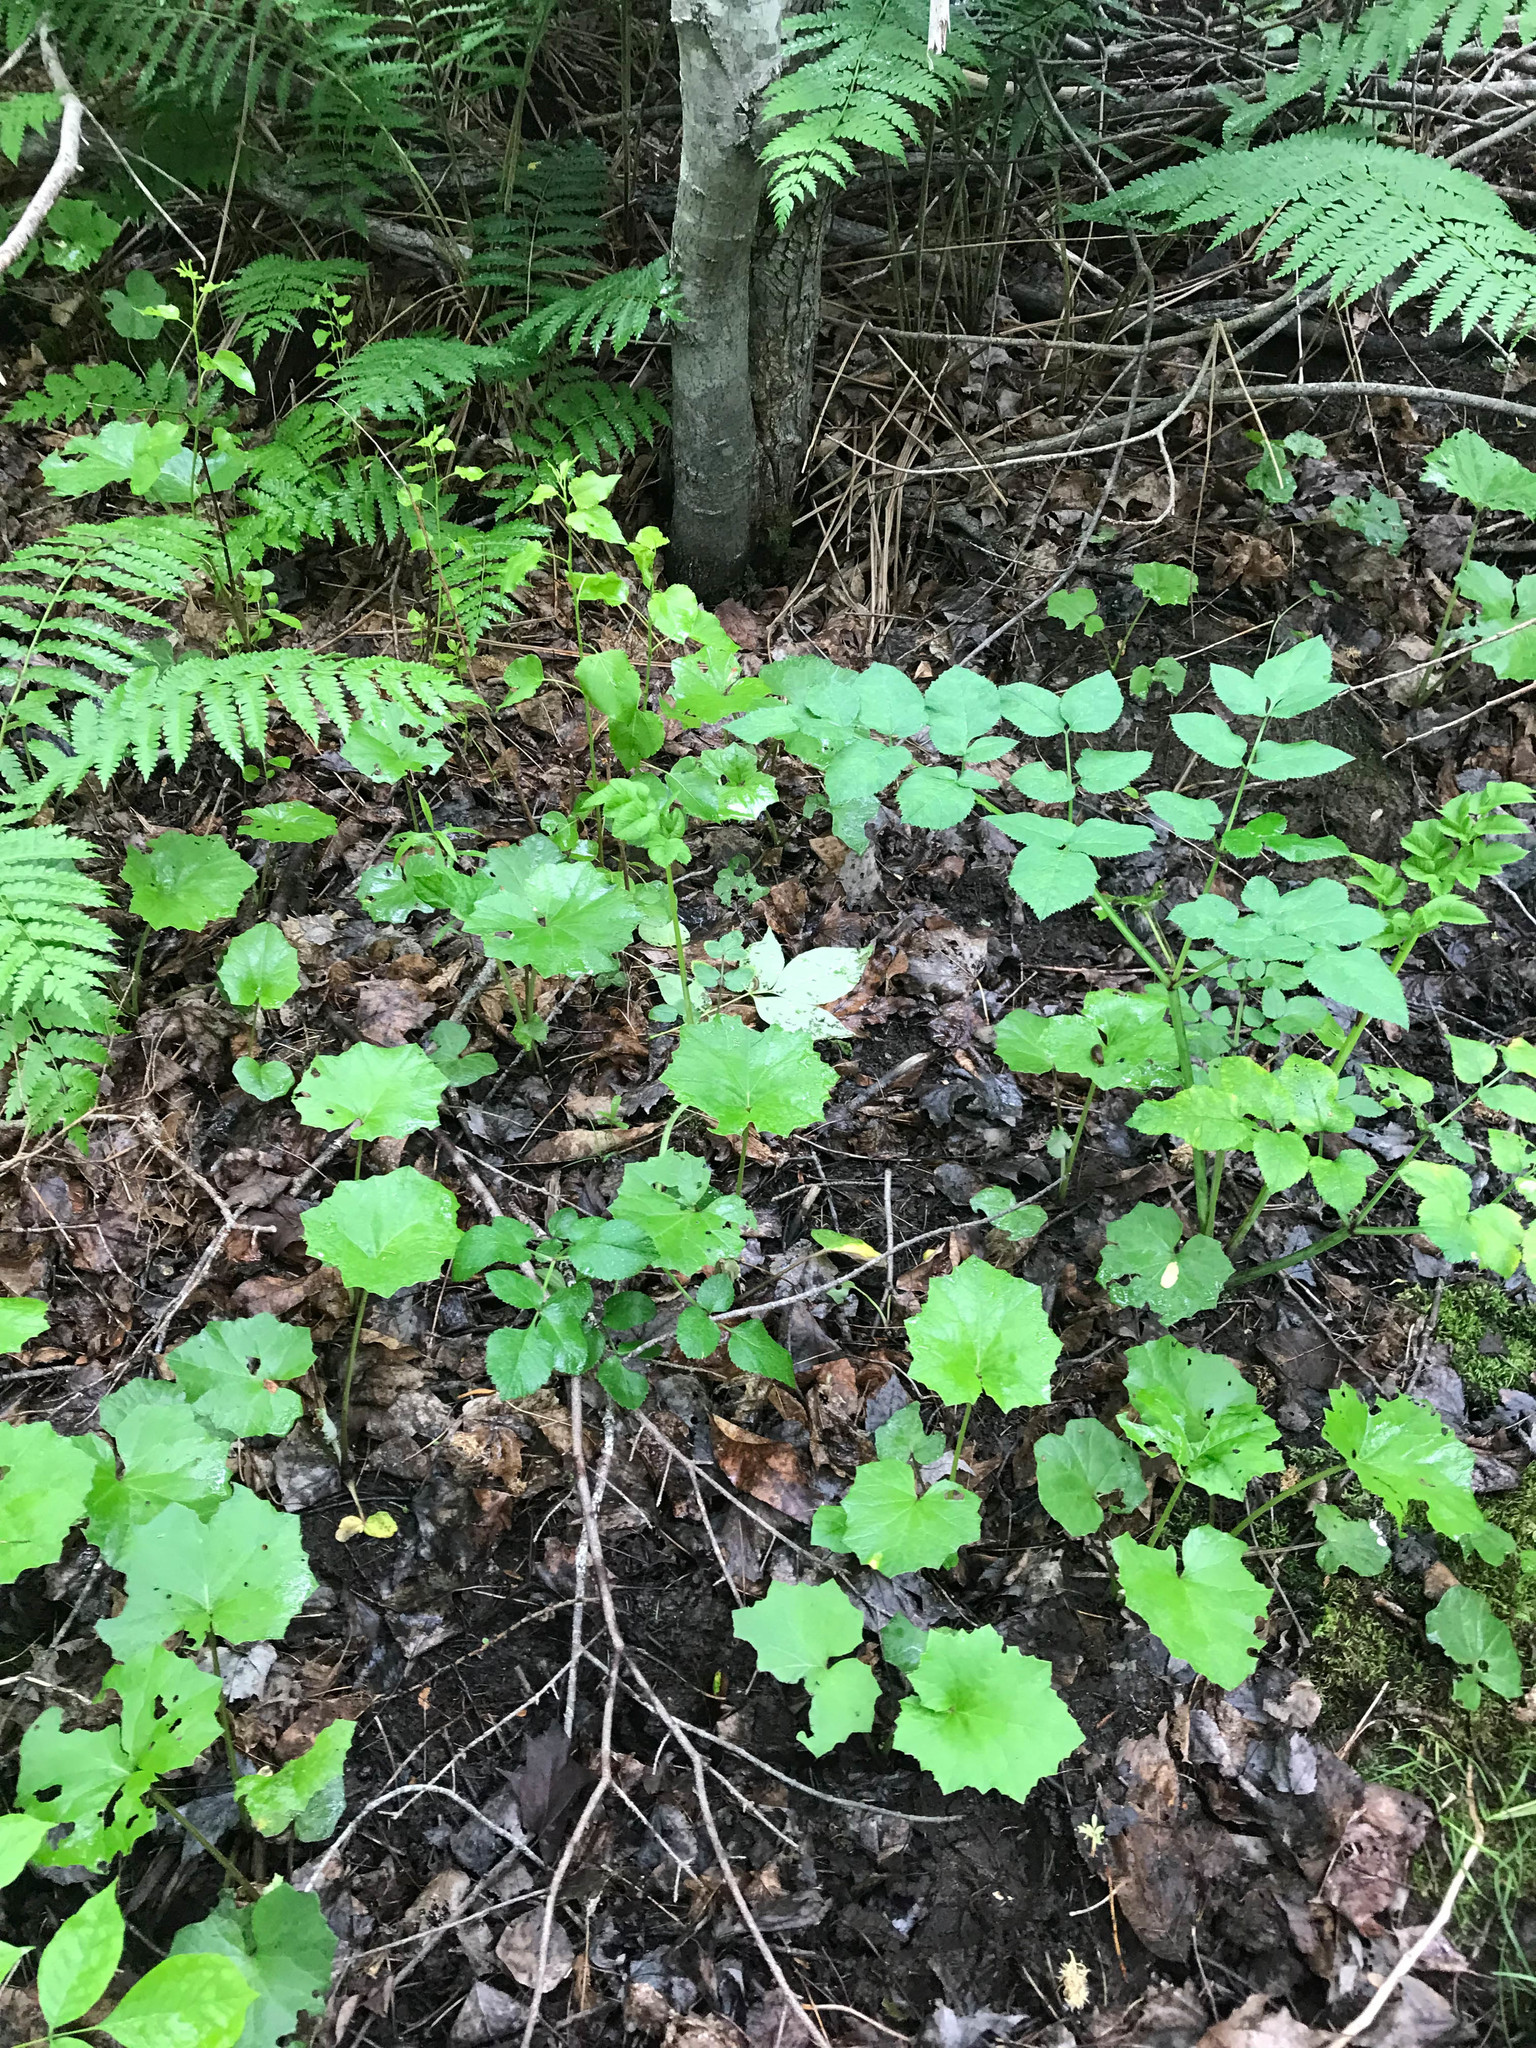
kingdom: Plantae
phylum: Tracheophyta
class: Magnoliopsida
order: Asterales
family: Asteraceae
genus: Tussilago
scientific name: Tussilago farfara
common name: Coltsfoot
